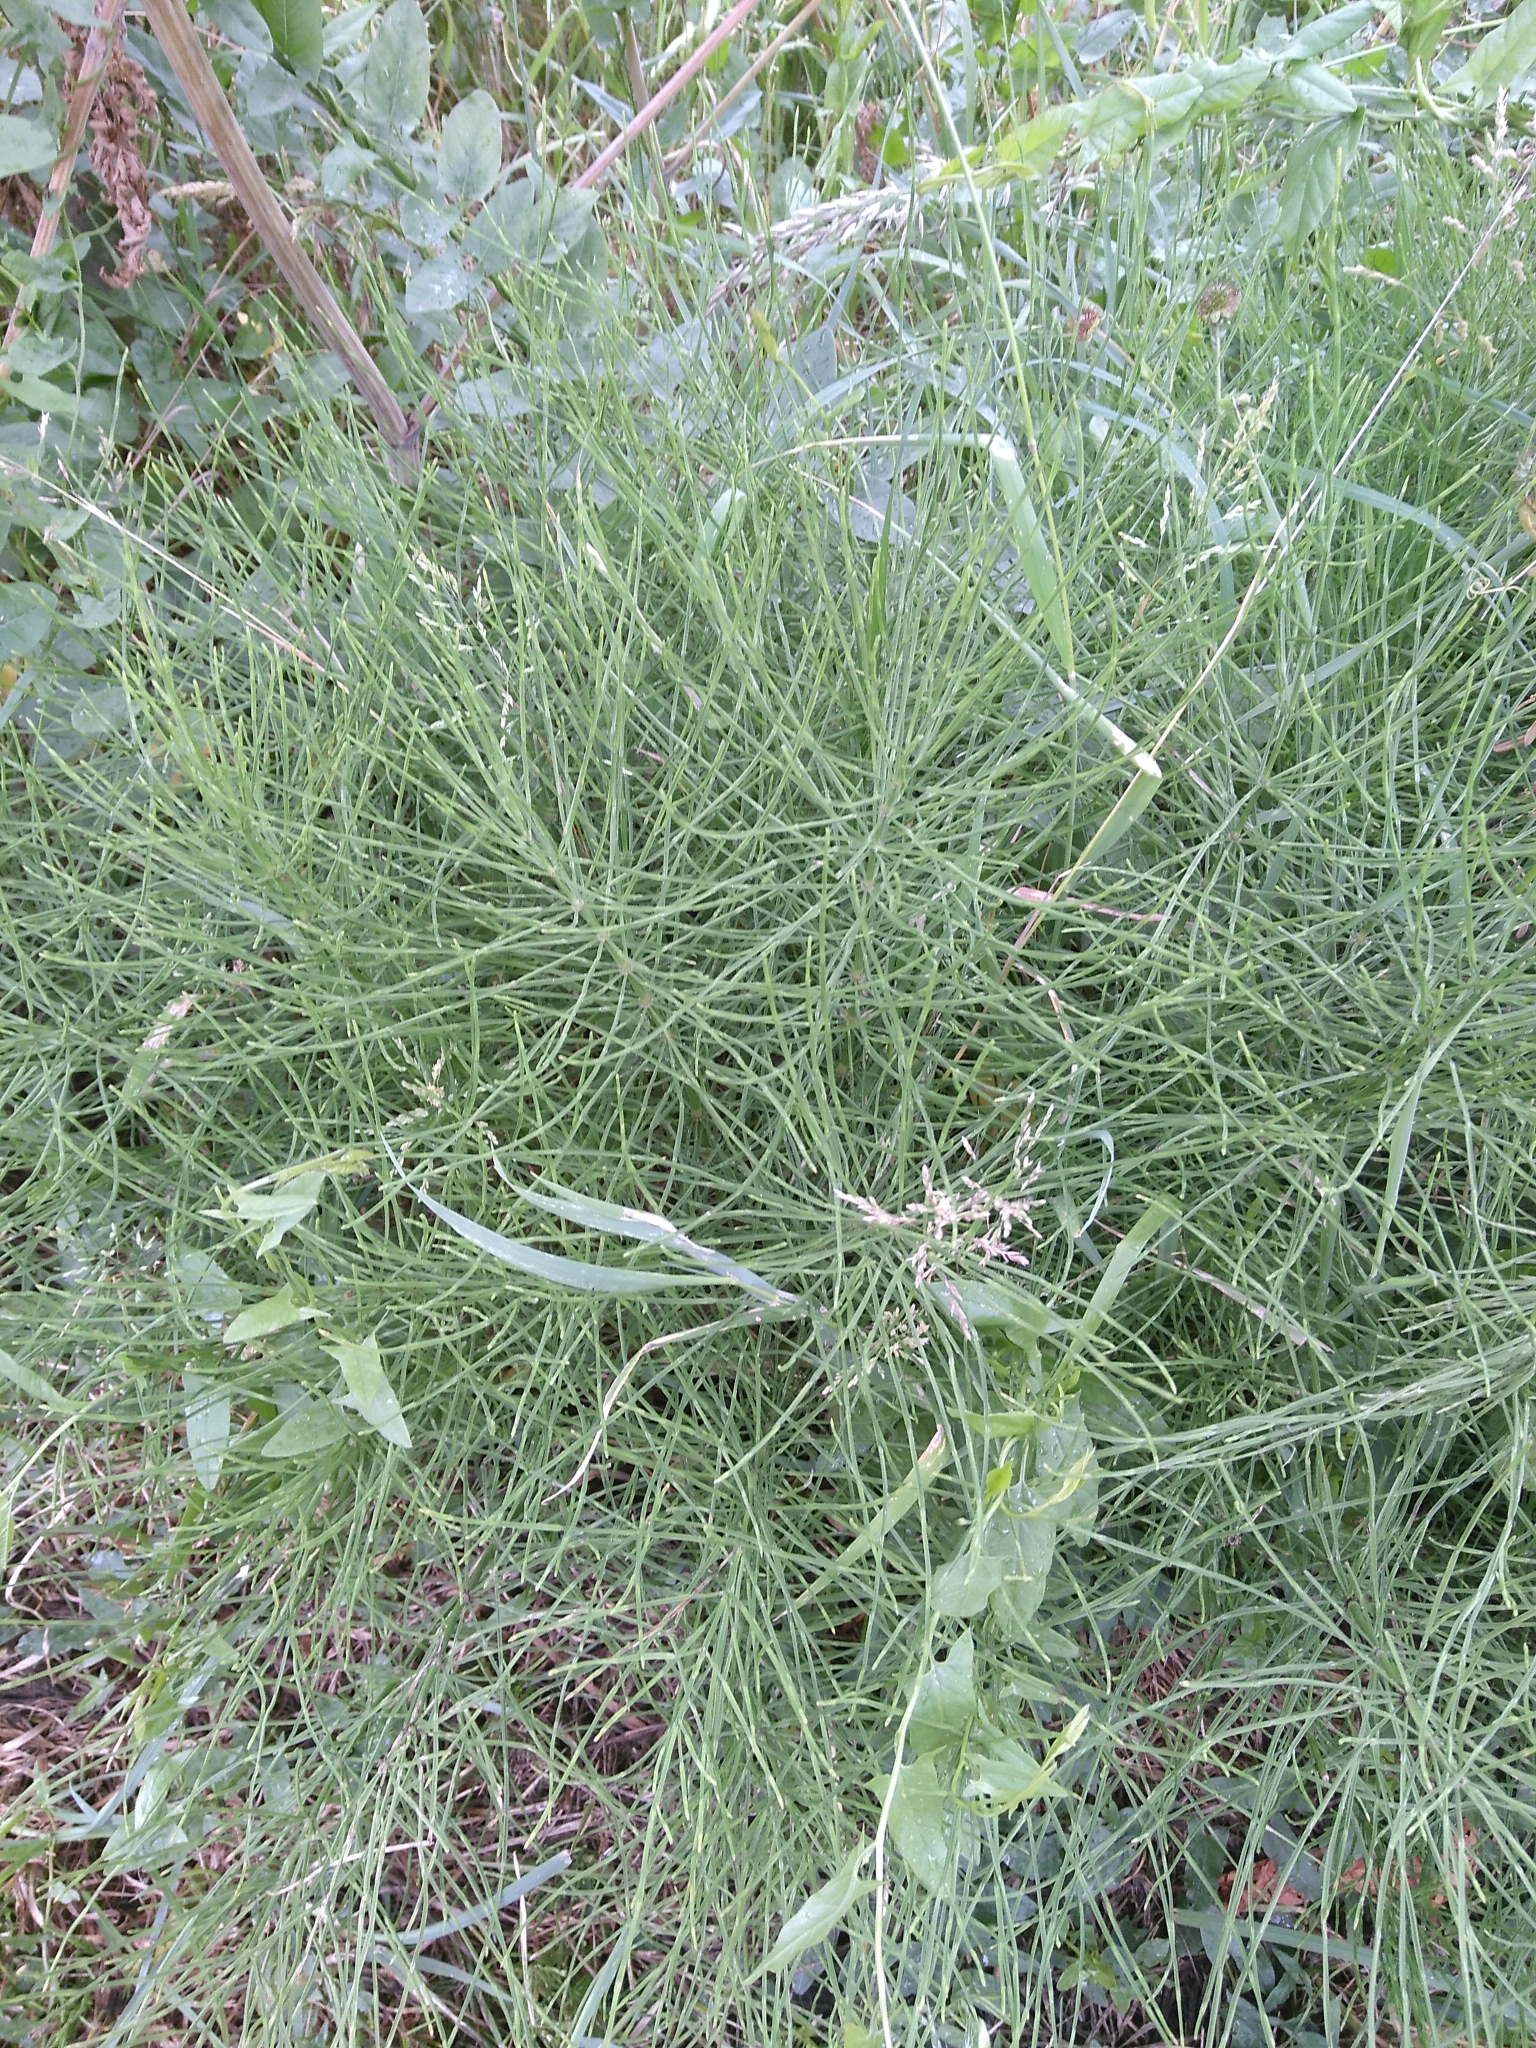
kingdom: Plantae
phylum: Tracheophyta
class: Polypodiopsida
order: Equisetales
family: Equisetaceae
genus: Equisetum
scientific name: Equisetum arvense
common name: Field horsetail
